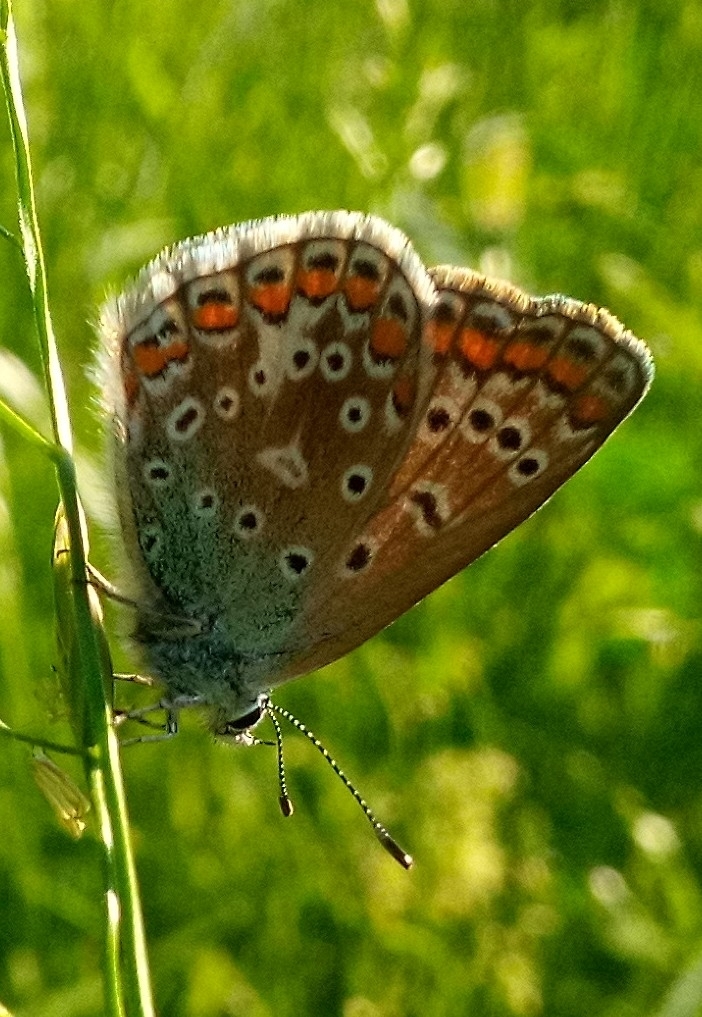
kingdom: Animalia
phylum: Arthropoda
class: Insecta
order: Lepidoptera
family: Lycaenidae
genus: Polyommatus
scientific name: Polyommatus icarus
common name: Common blue
